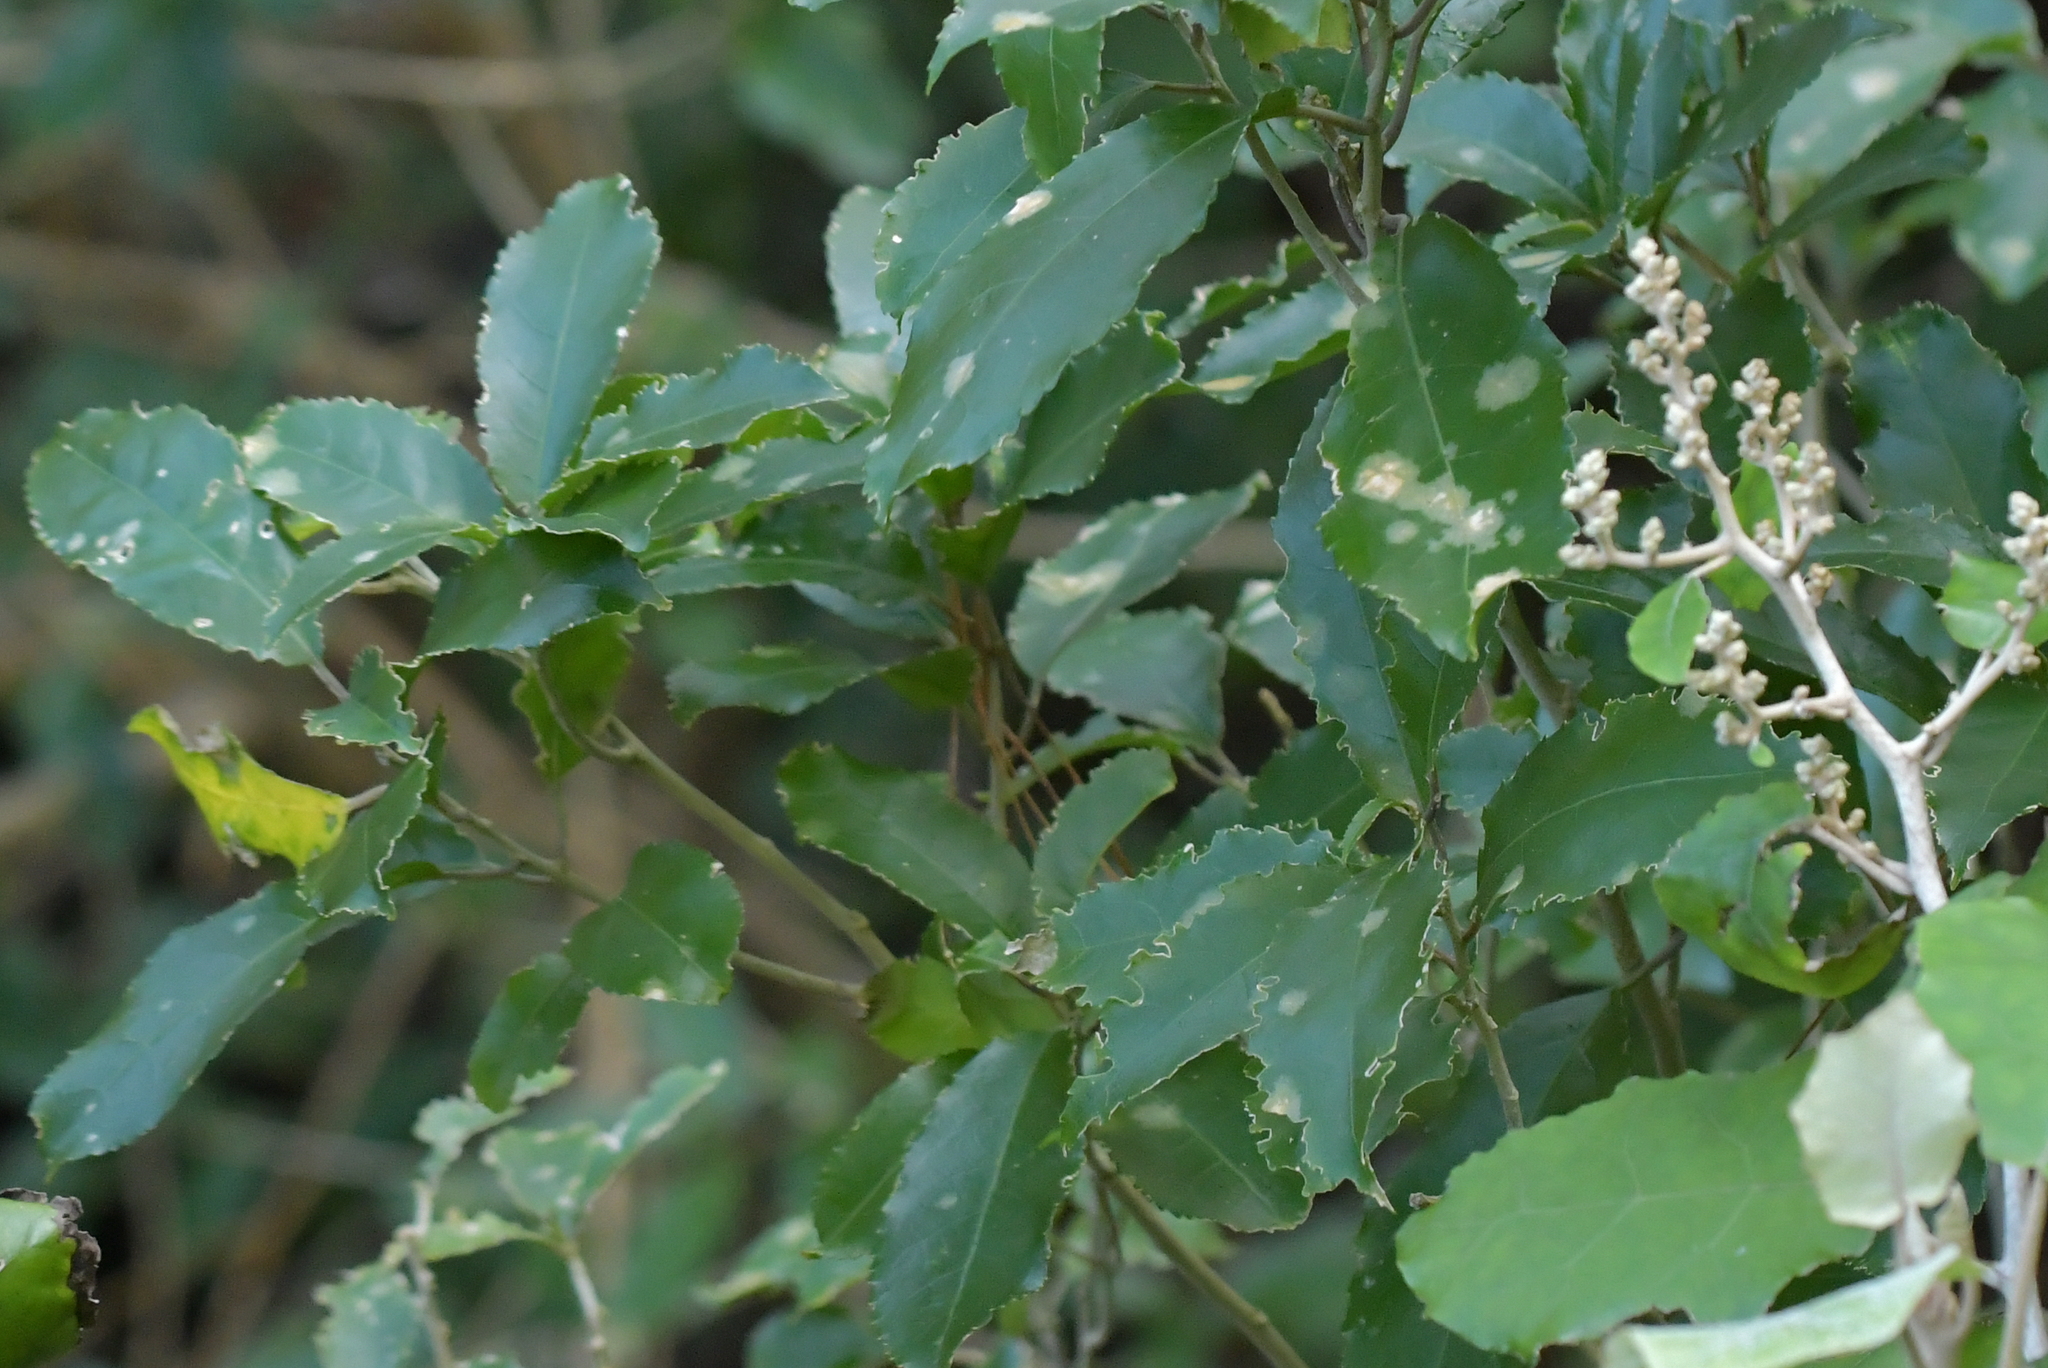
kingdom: Plantae
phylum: Chlorophyta
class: Ulvophyceae
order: Trentepohliales
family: Trentepohliaceae
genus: Cephaleuros
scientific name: Cephaleuros
